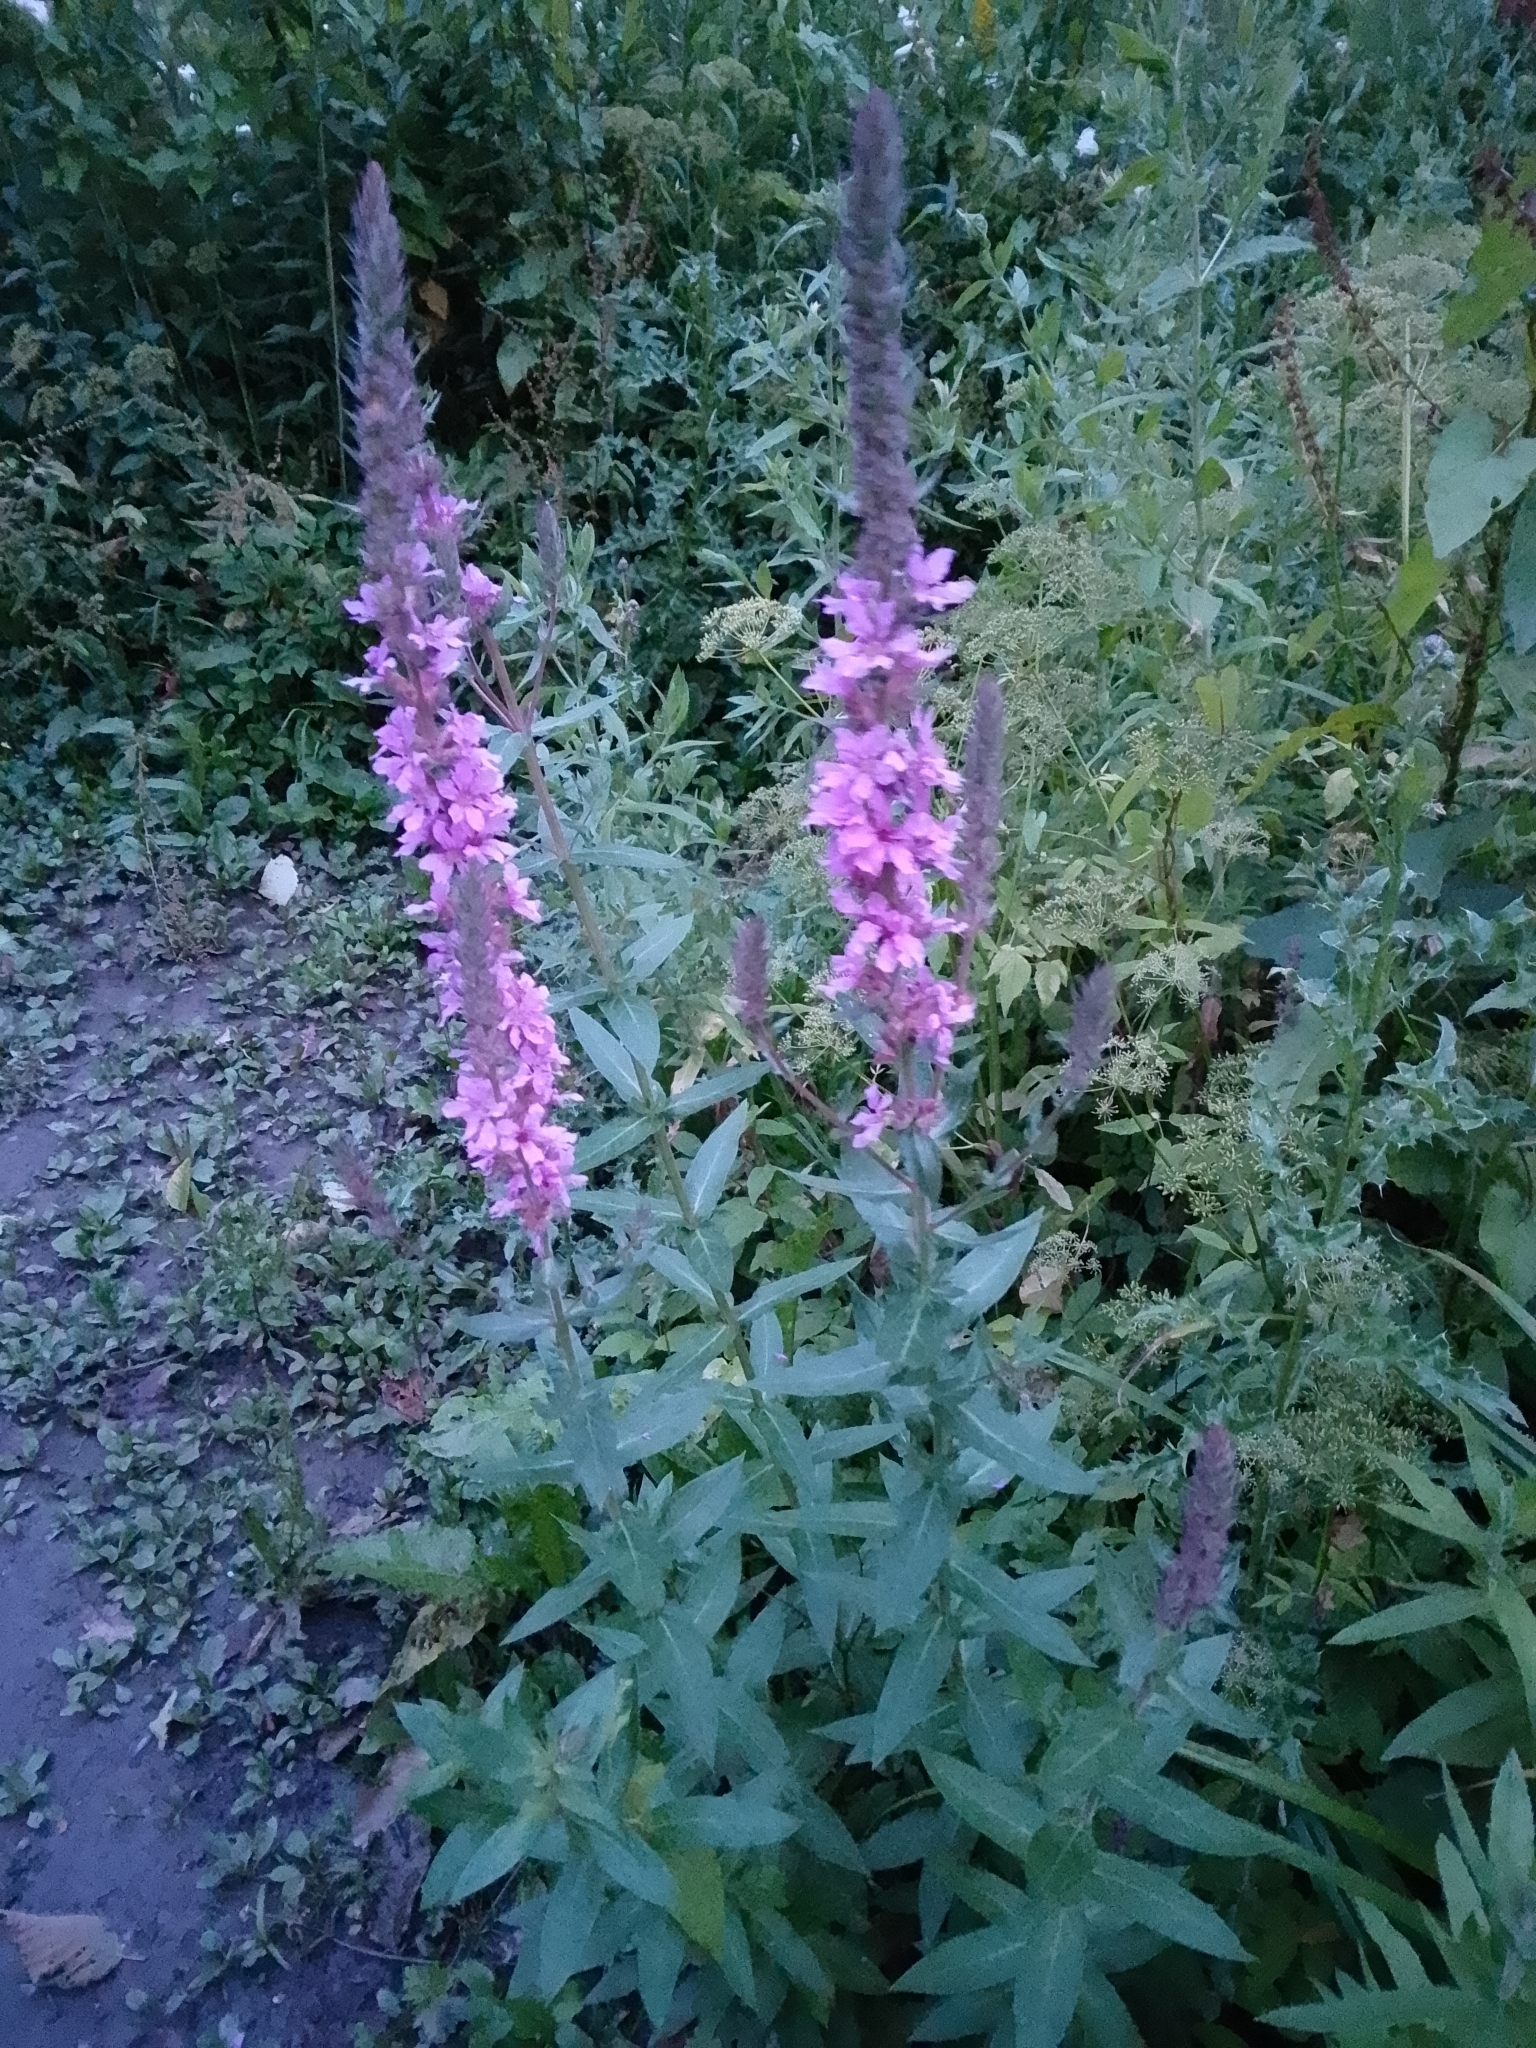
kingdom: Plantae
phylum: Tracheophyta
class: Magnoliopsida
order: Myrtales
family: Lythraceae
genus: Lythrum
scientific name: Lythrum salicaria
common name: Purple loosestrife
